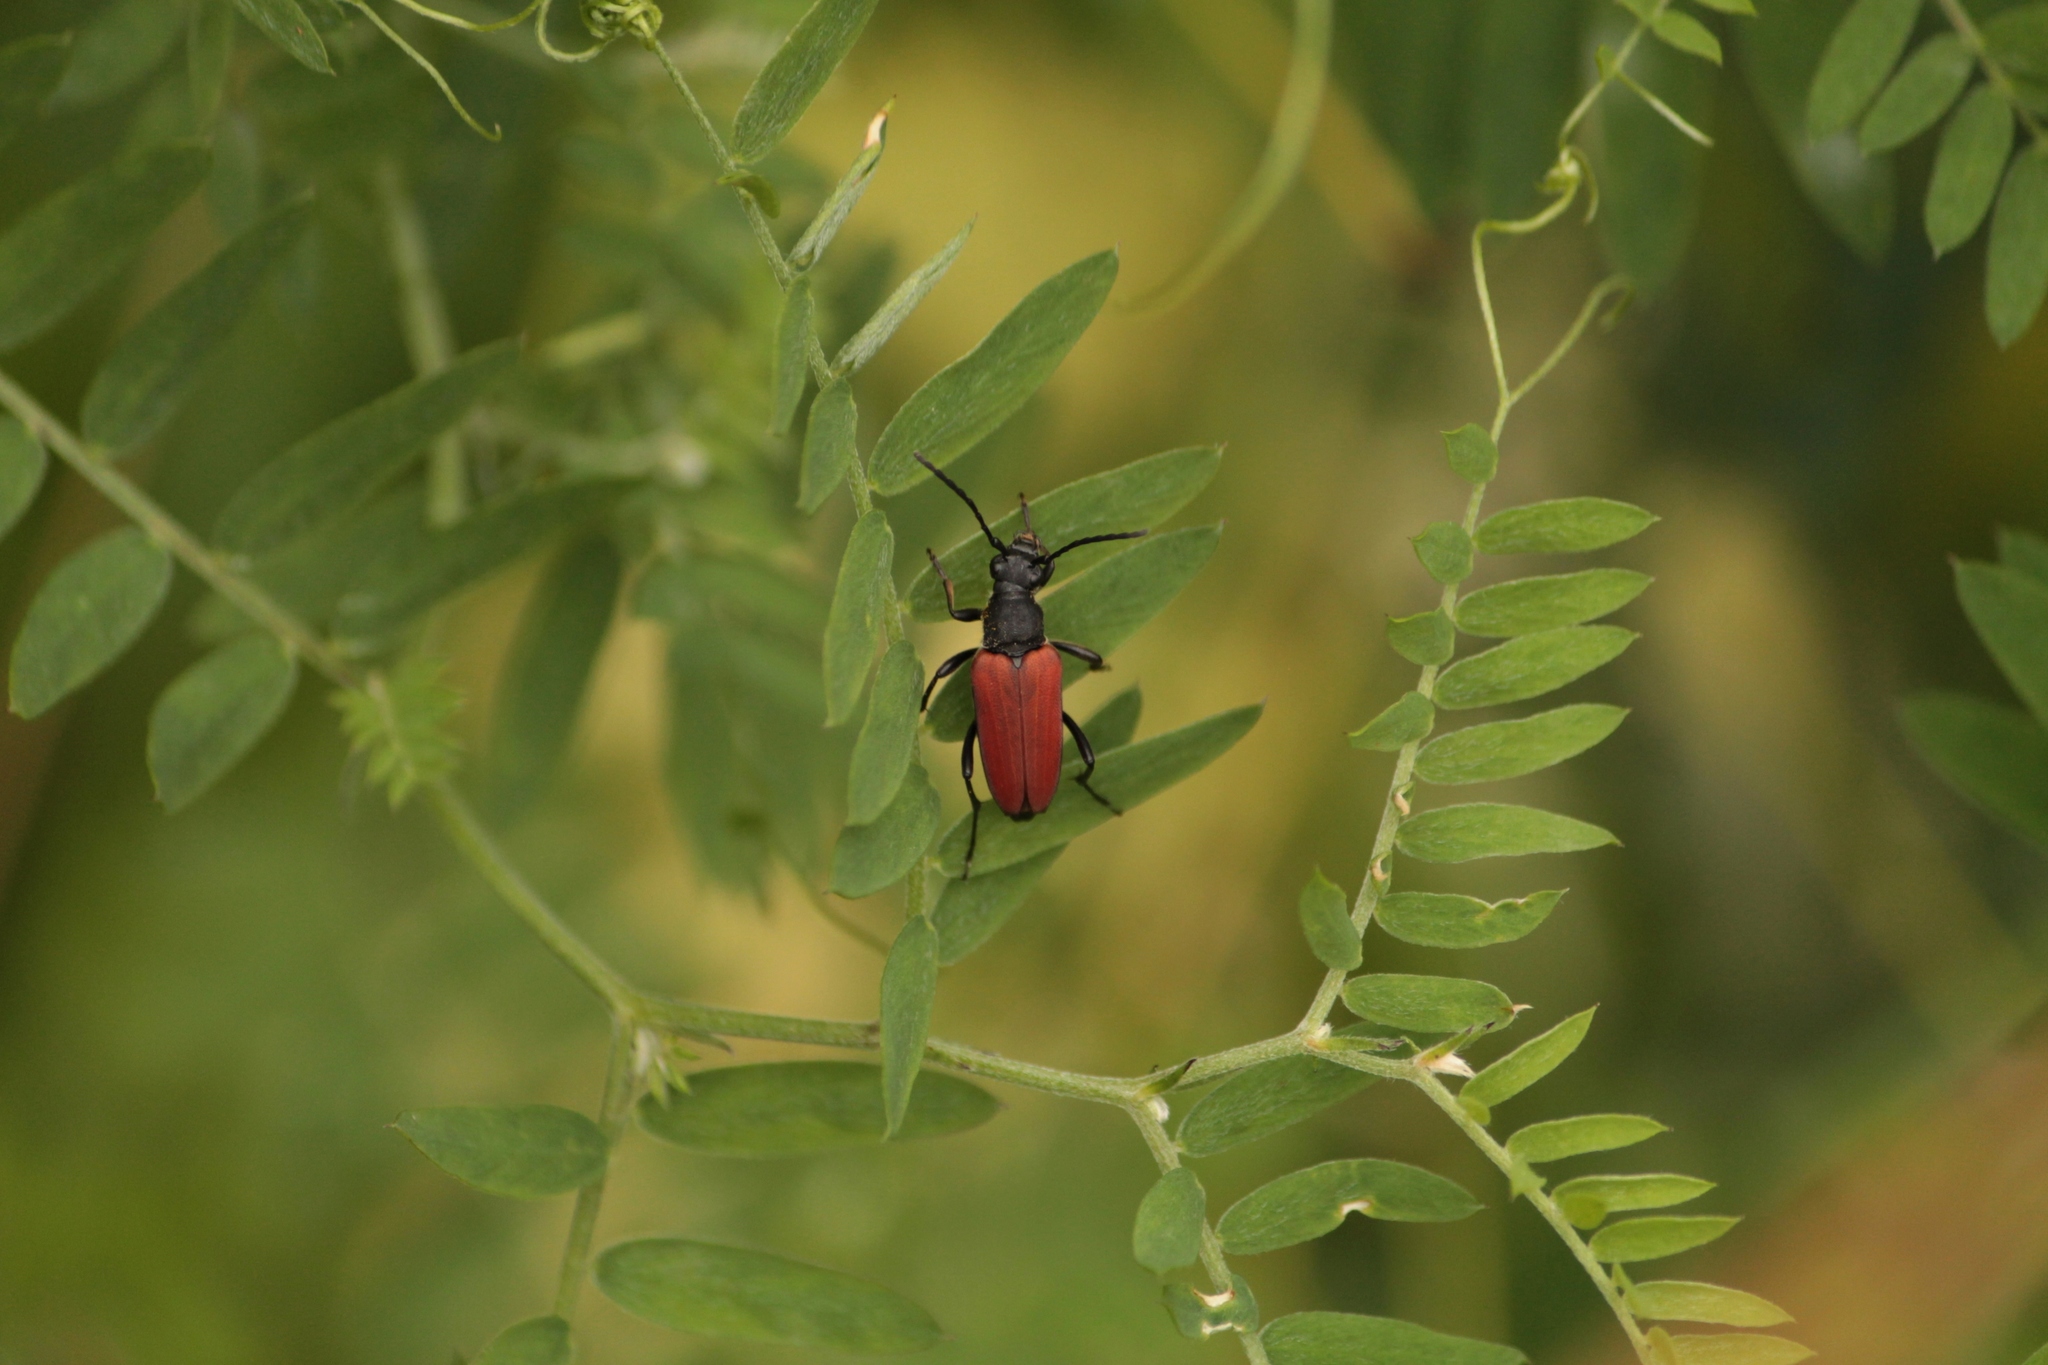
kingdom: Animalia
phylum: Arthropoda
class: Insecta
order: Coleoptera
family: Cerambycidae
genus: Anastrangalia
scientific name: Anastrangalia sanguinolenta
